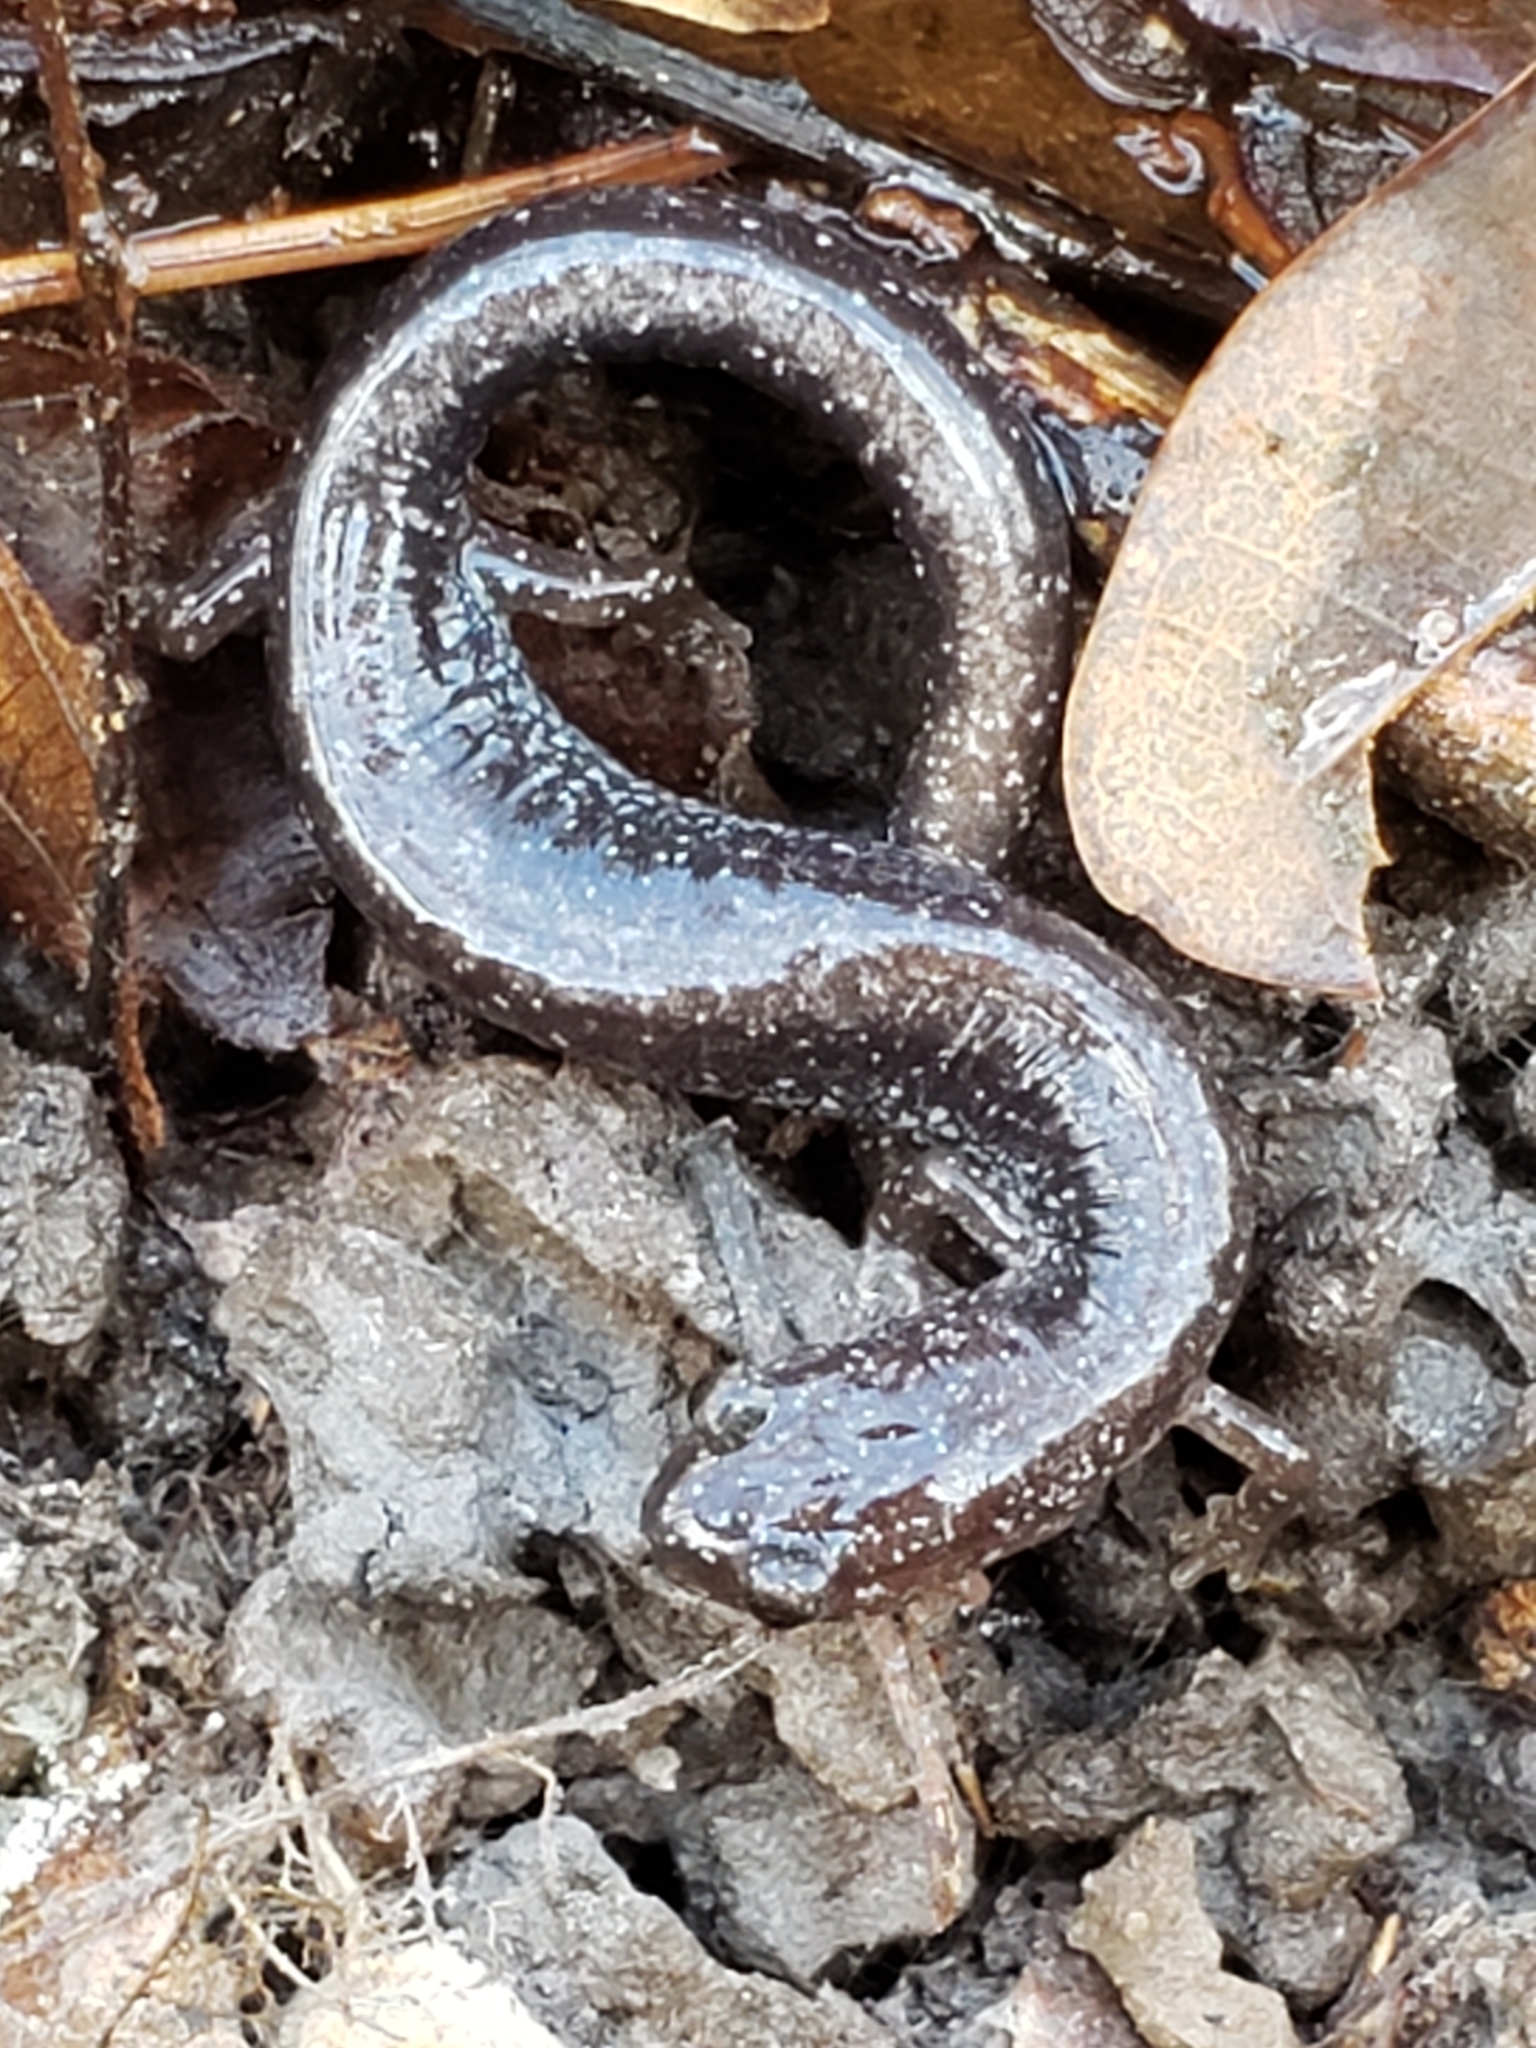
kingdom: Animalia
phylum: Chordata
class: Amphibia
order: Caudata
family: Plethodontidae
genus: Plethodon
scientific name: Plethodon cinereus
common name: Redback salamander
